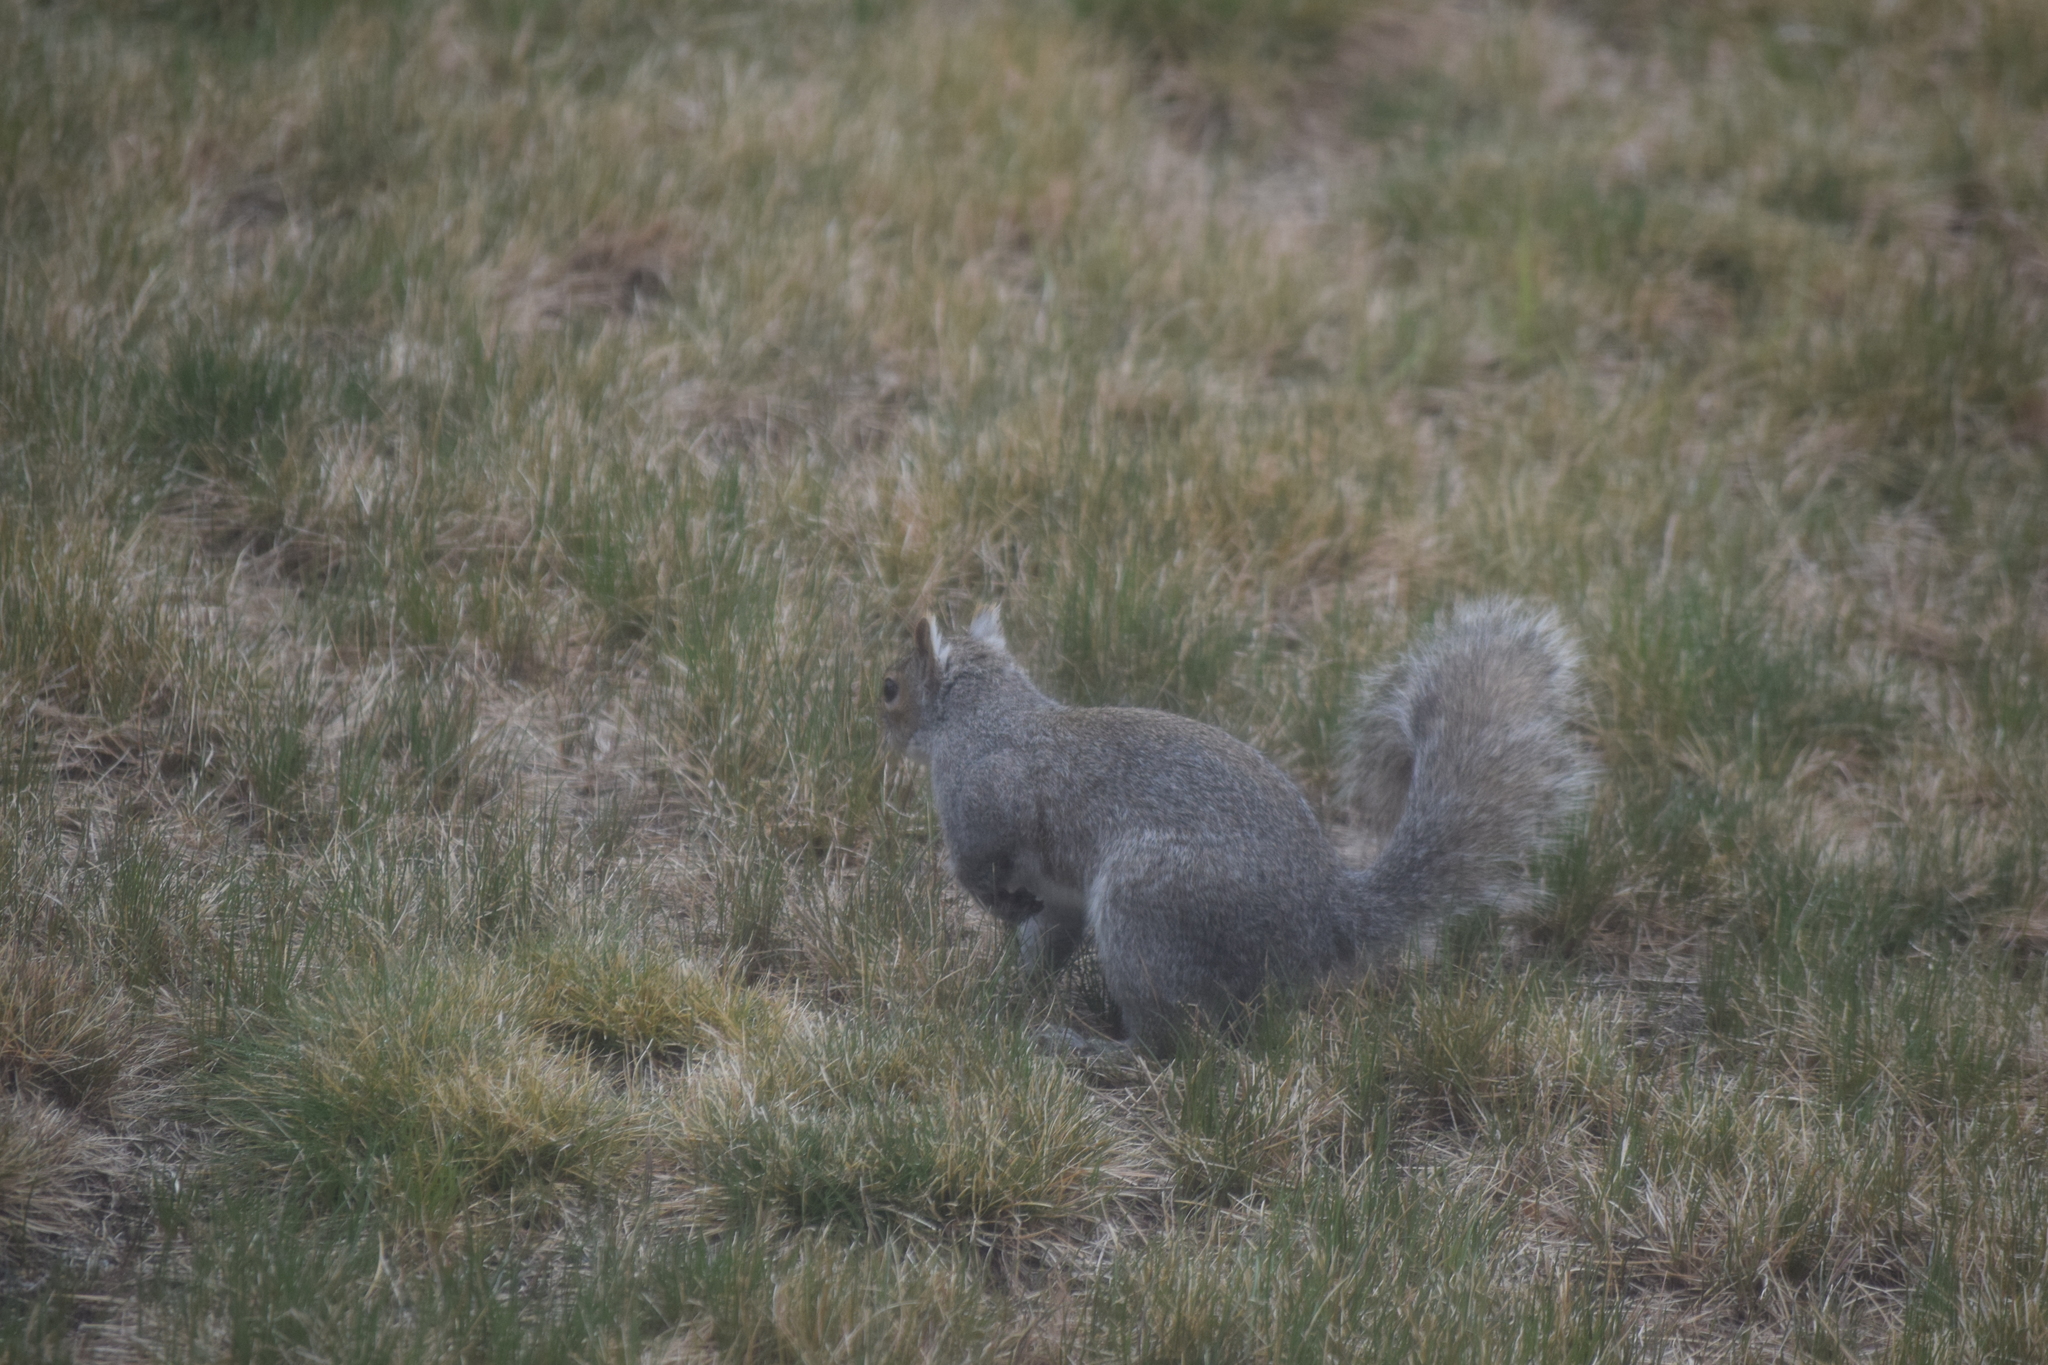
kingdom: Animalia
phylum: Chordata
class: Mammalia
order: Rodentia
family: Sciuridae
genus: Sciurus
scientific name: Sciurus carolinensis
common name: Eastern gray squirrel
